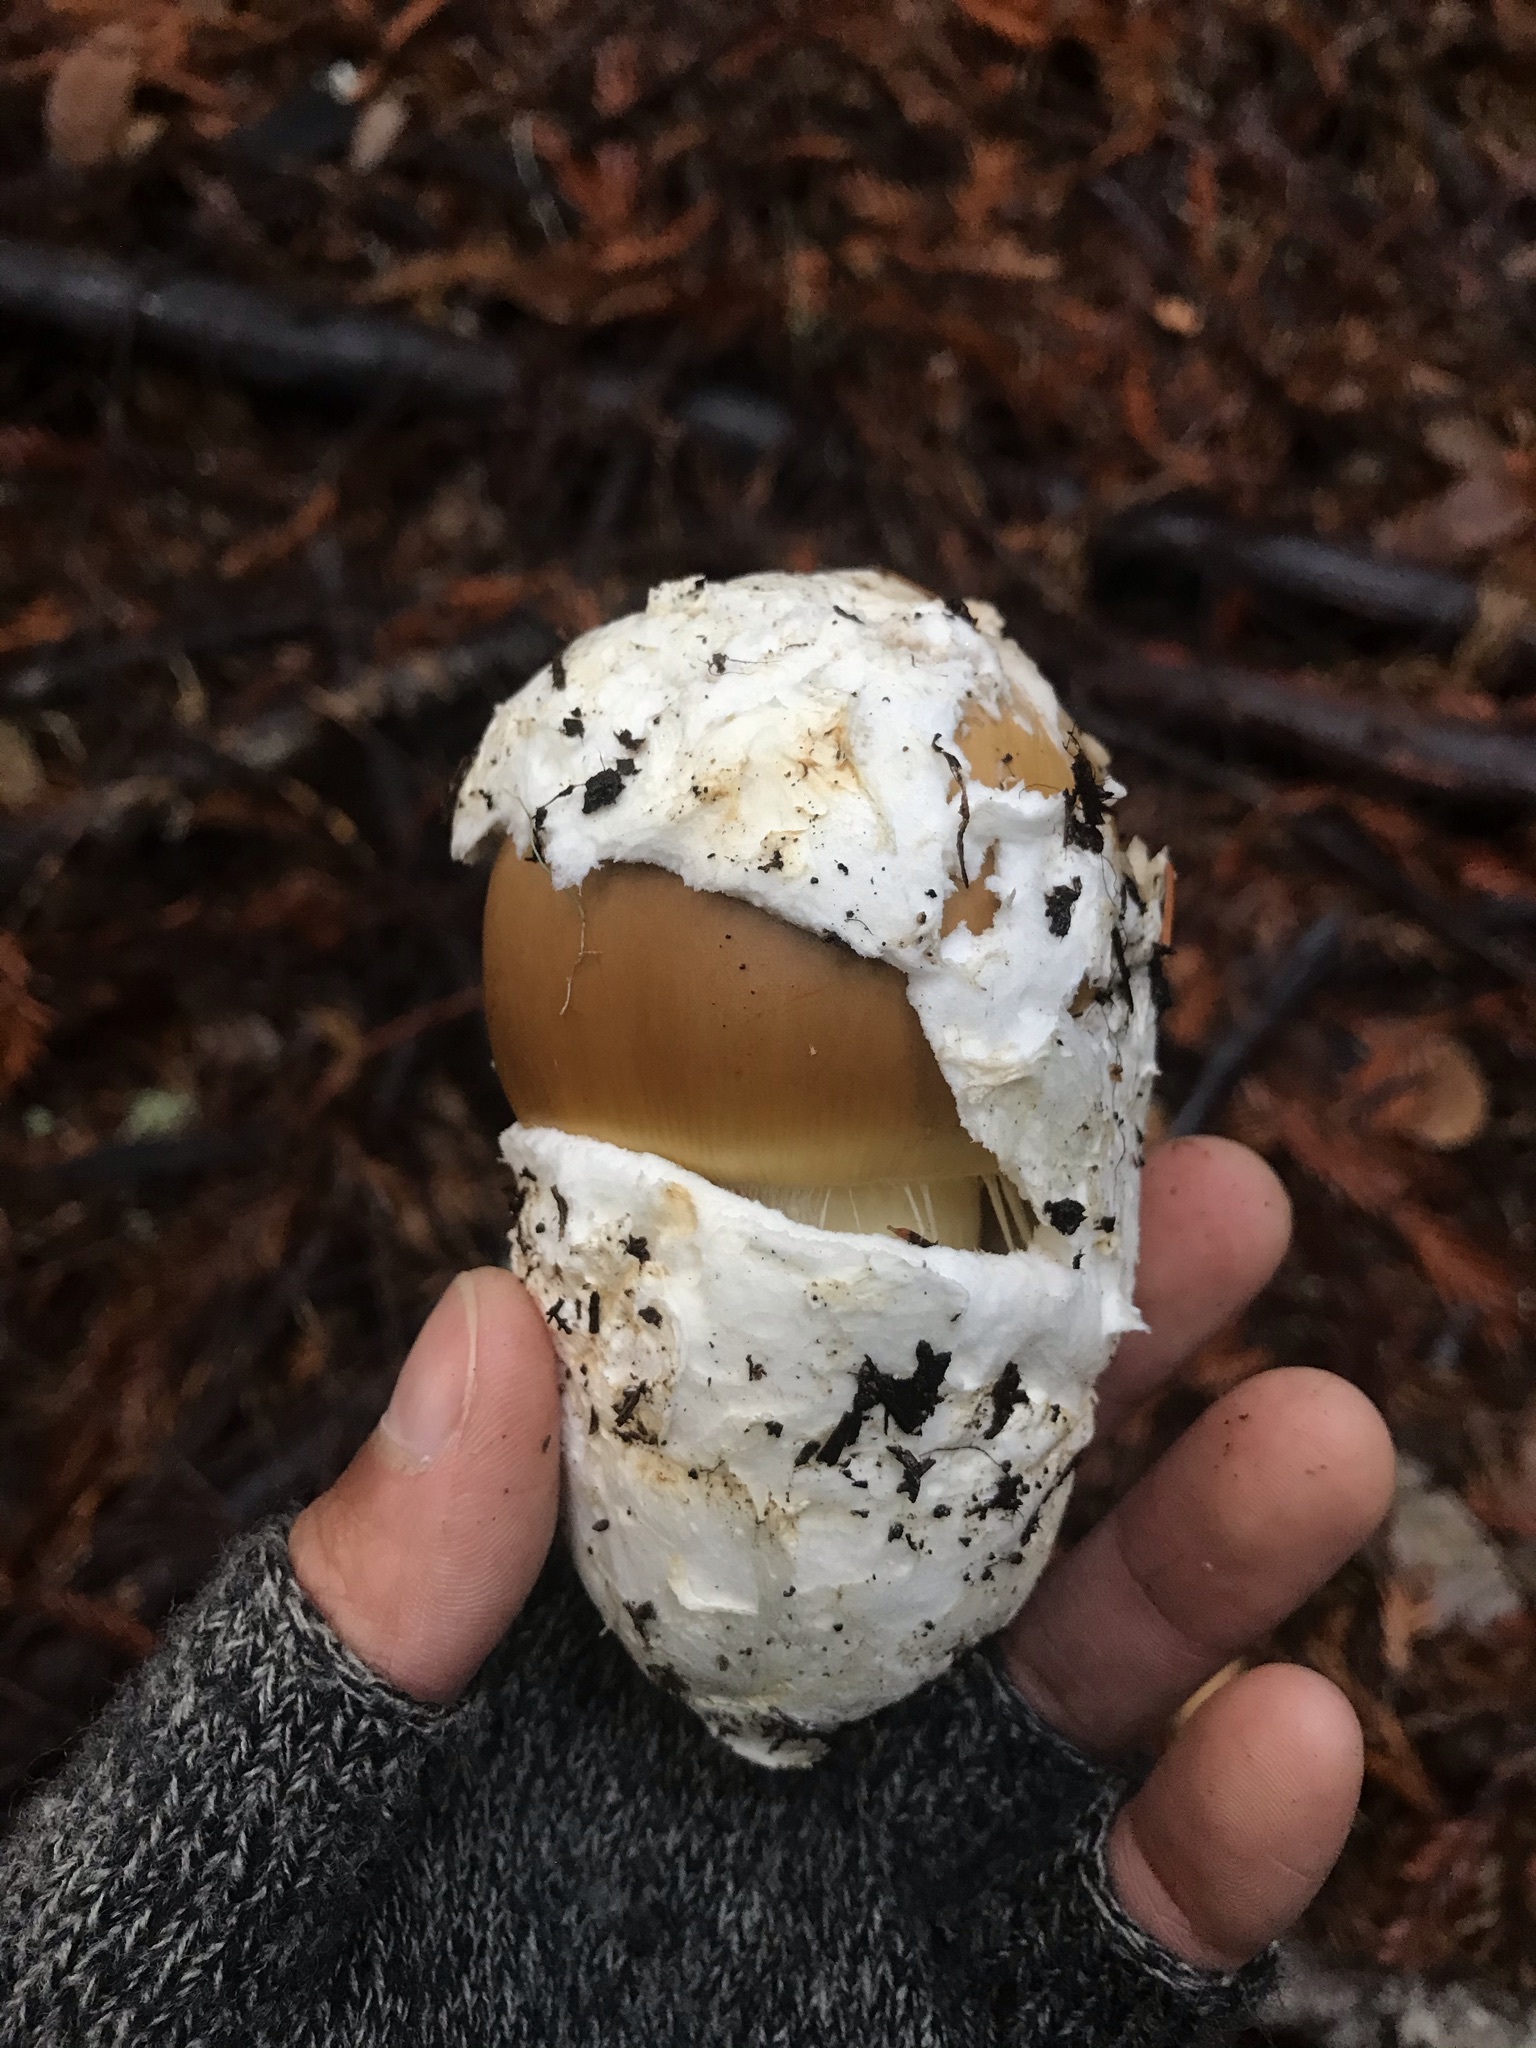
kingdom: Fungi
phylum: Basidiomycota
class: Agaricomycetes
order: Agaricales
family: Amanitaceae
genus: Amanita
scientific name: Amanita calyptroderma
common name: Coccora
